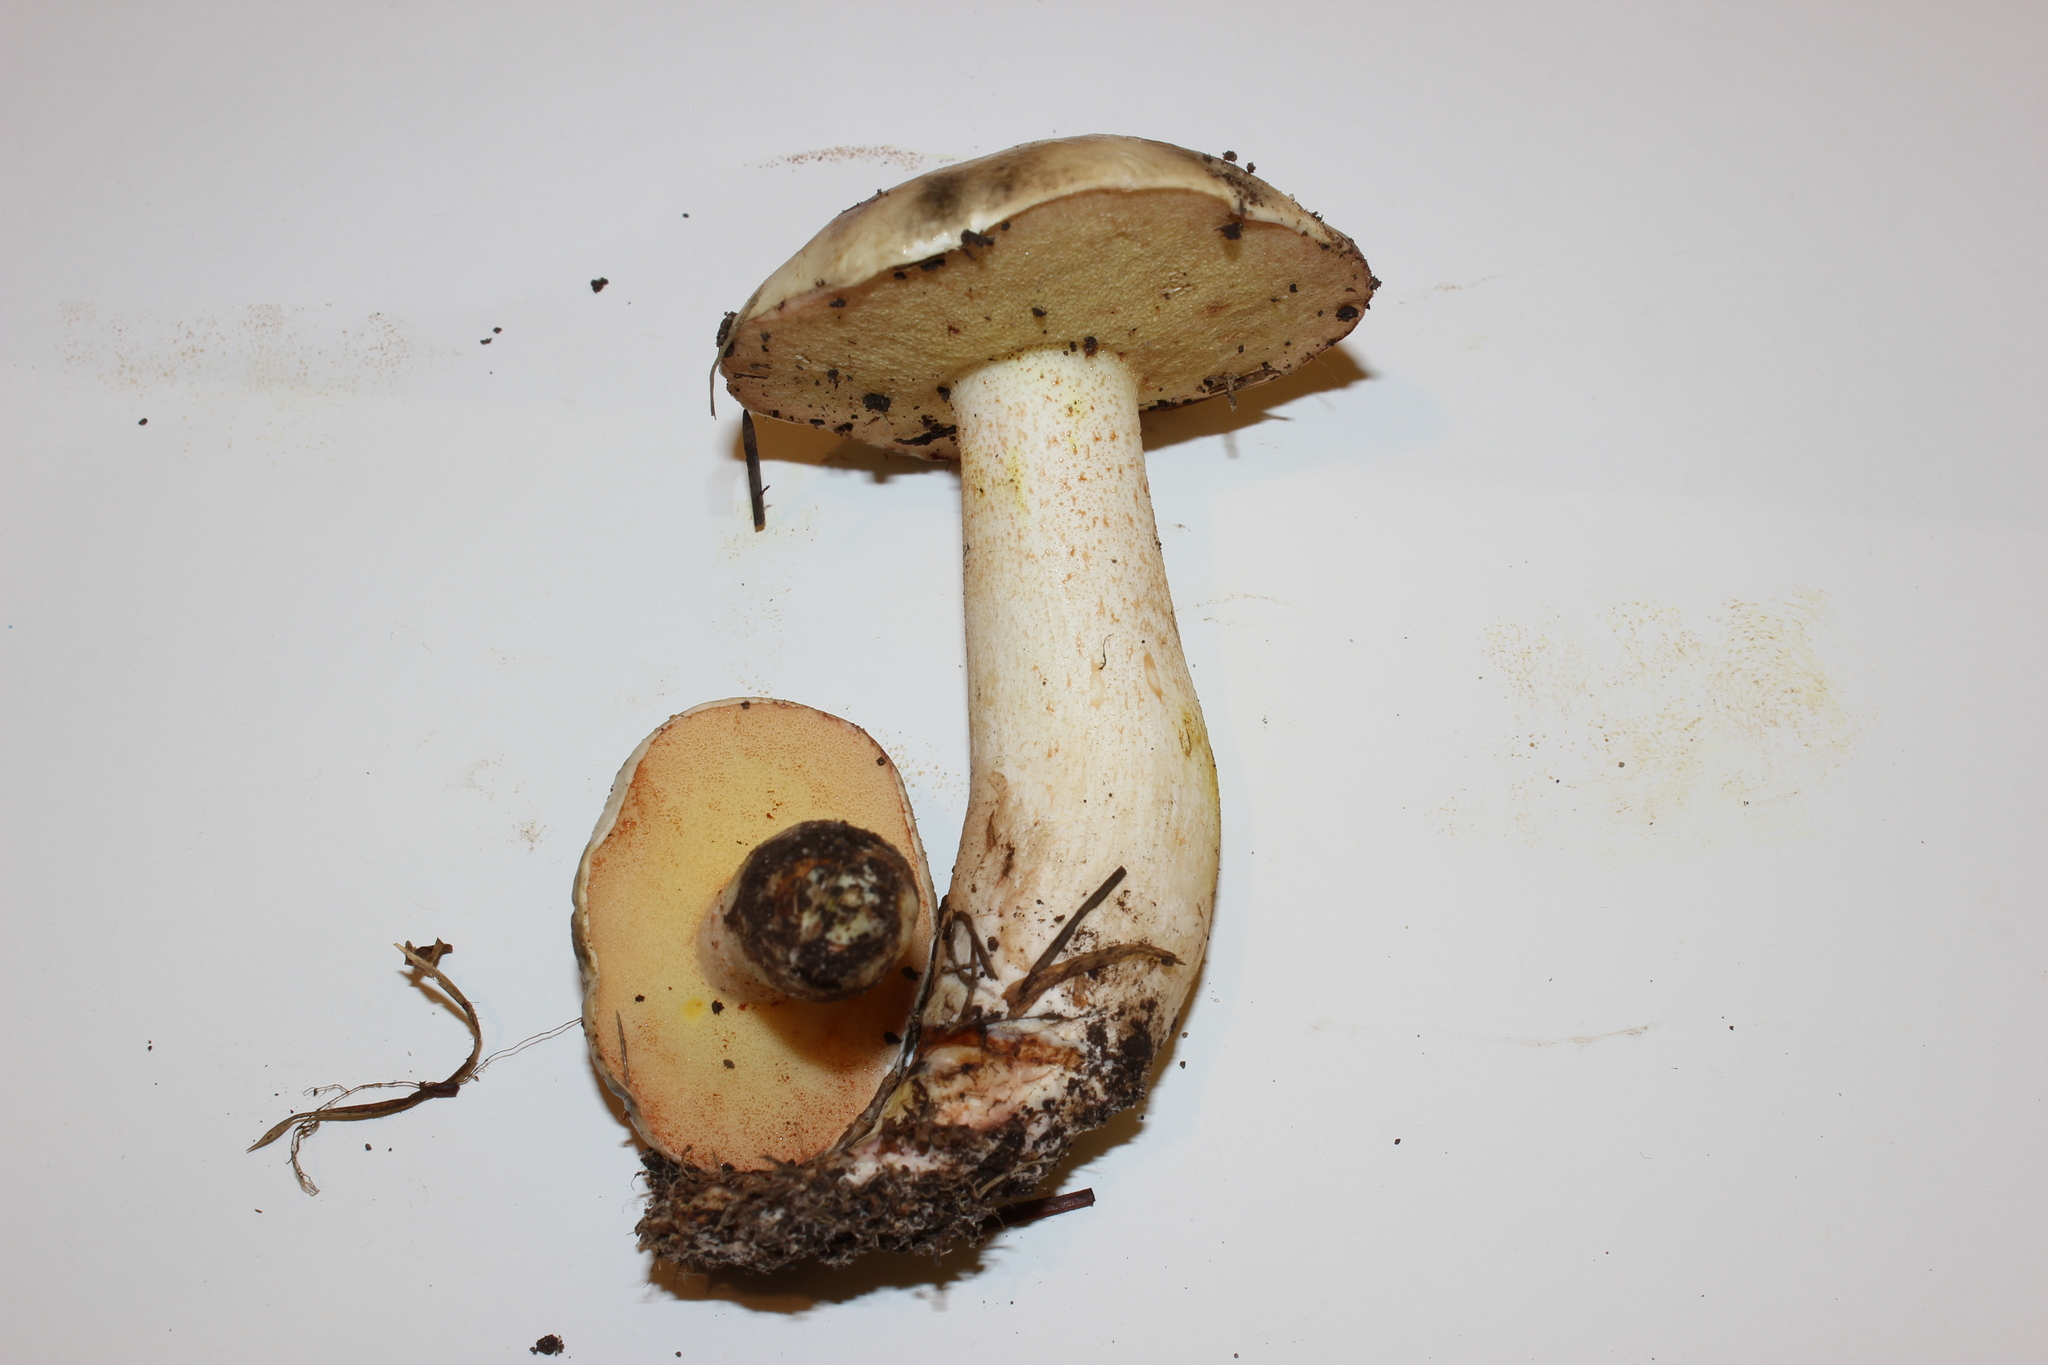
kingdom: Fungi
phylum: Basidiomycota
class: Agaricomycetes
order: Boletales
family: Suillaceae
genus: Suillus
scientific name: Suillus pungens
